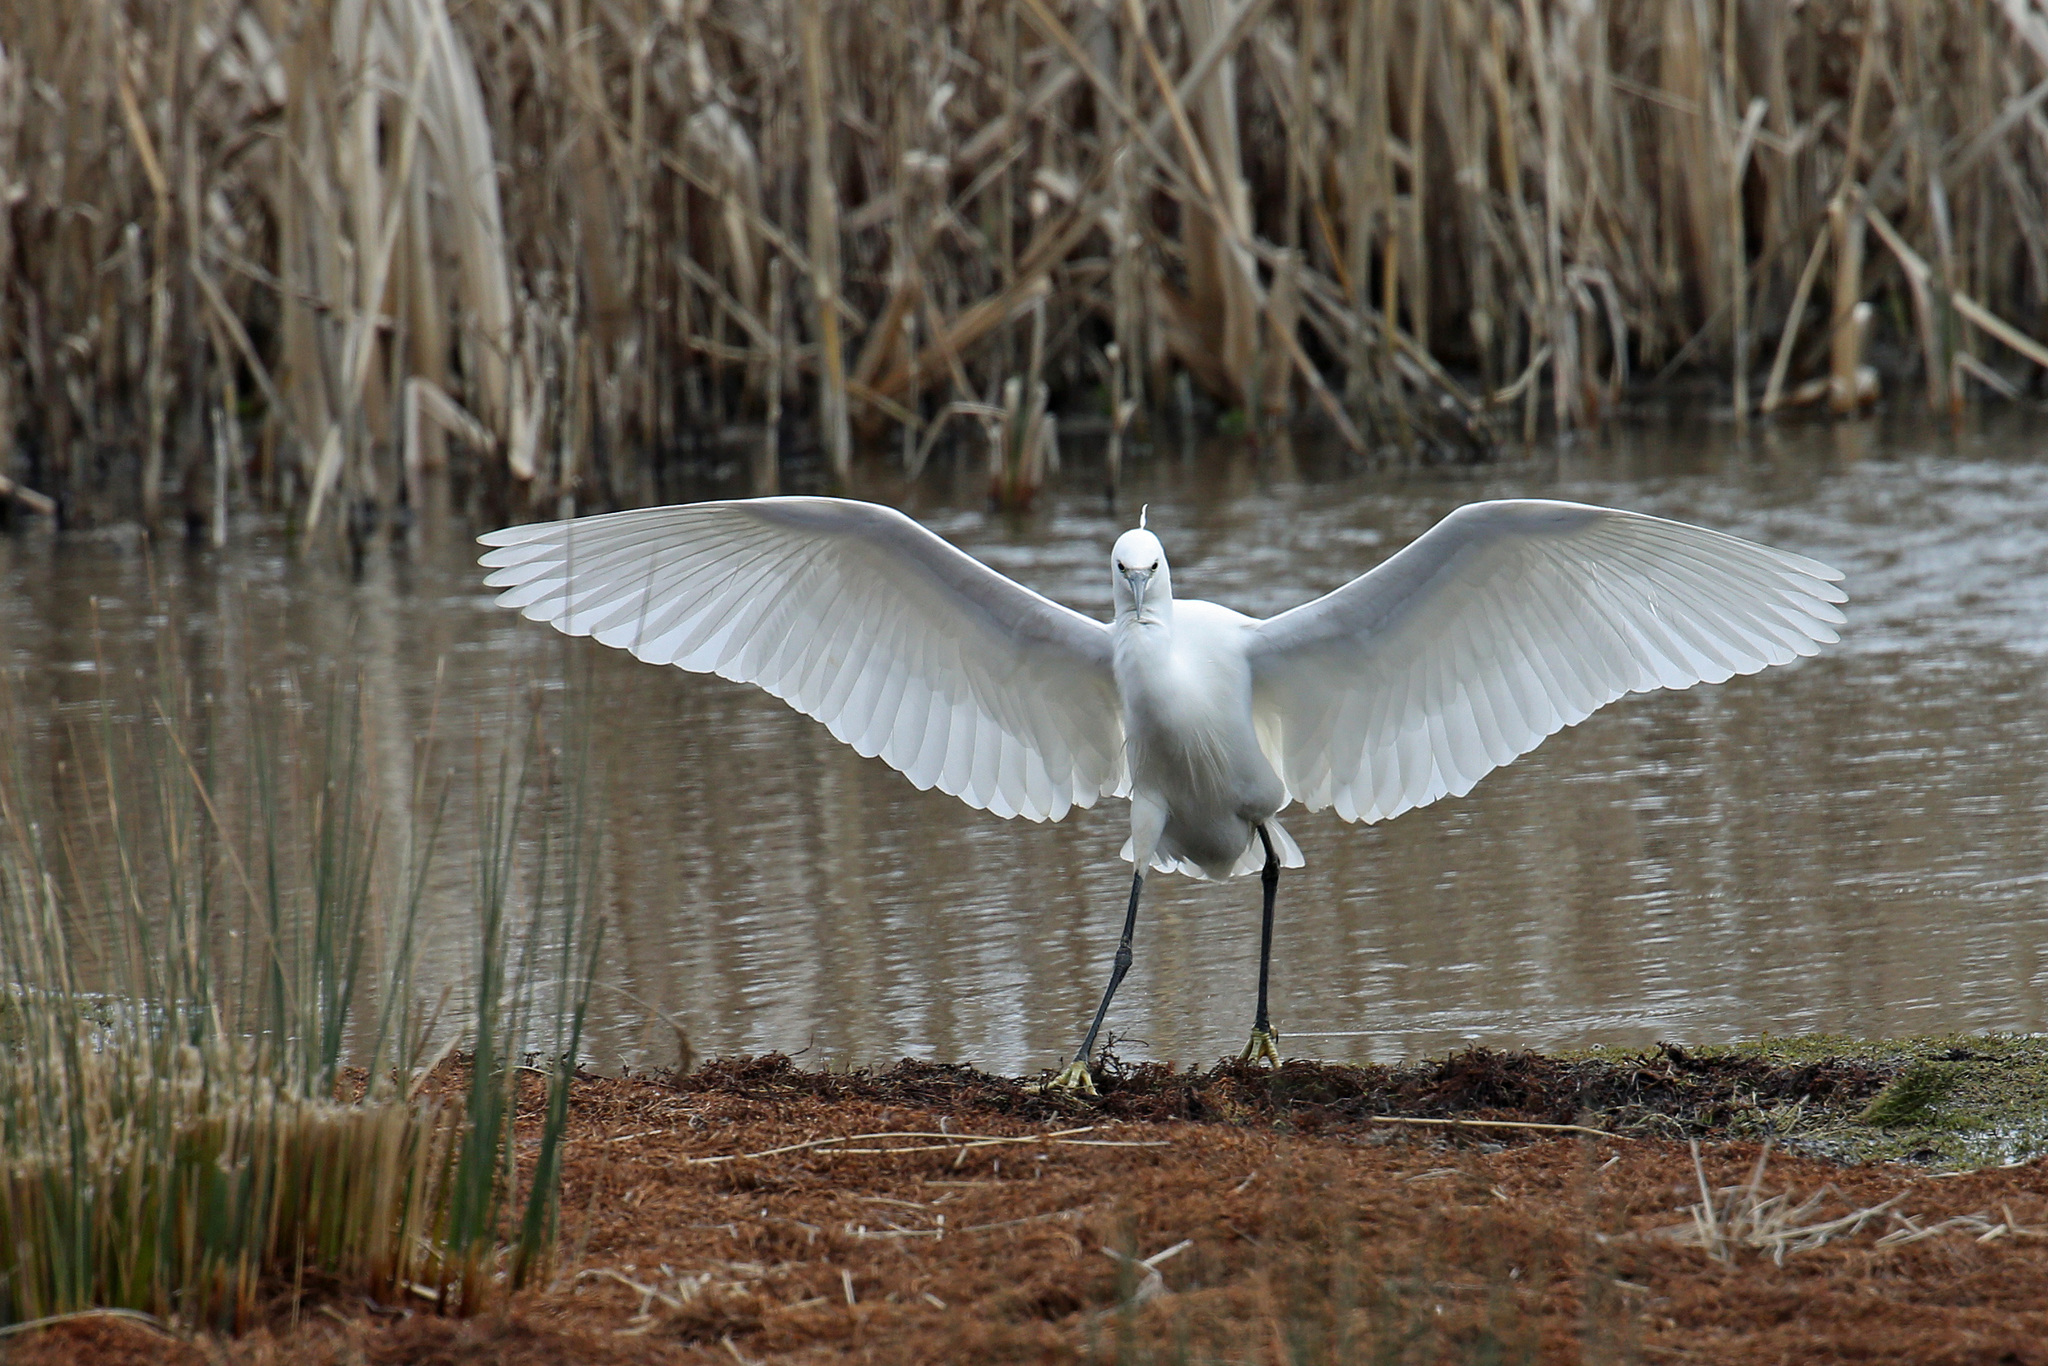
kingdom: Animalia
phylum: Chordata
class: Aves
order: Pelecaniformes
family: Ardeidae
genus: Egretta
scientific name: Egretta garzetta
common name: Little egret
